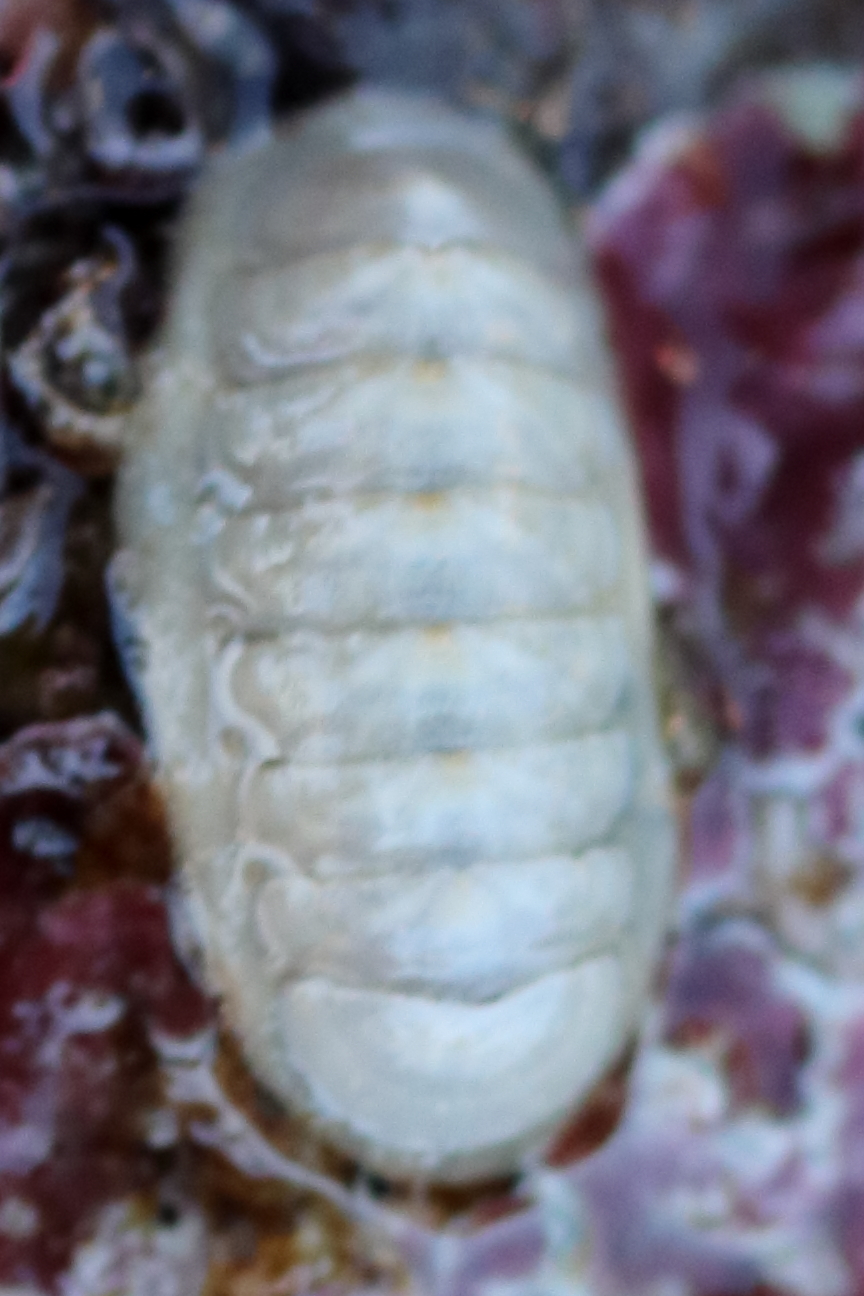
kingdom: Animalia
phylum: Mollusca
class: Polyplacophora
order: Lepidopleurida
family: Leptochitonidae
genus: Leptochiton
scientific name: Leptochiton cascadiensis
